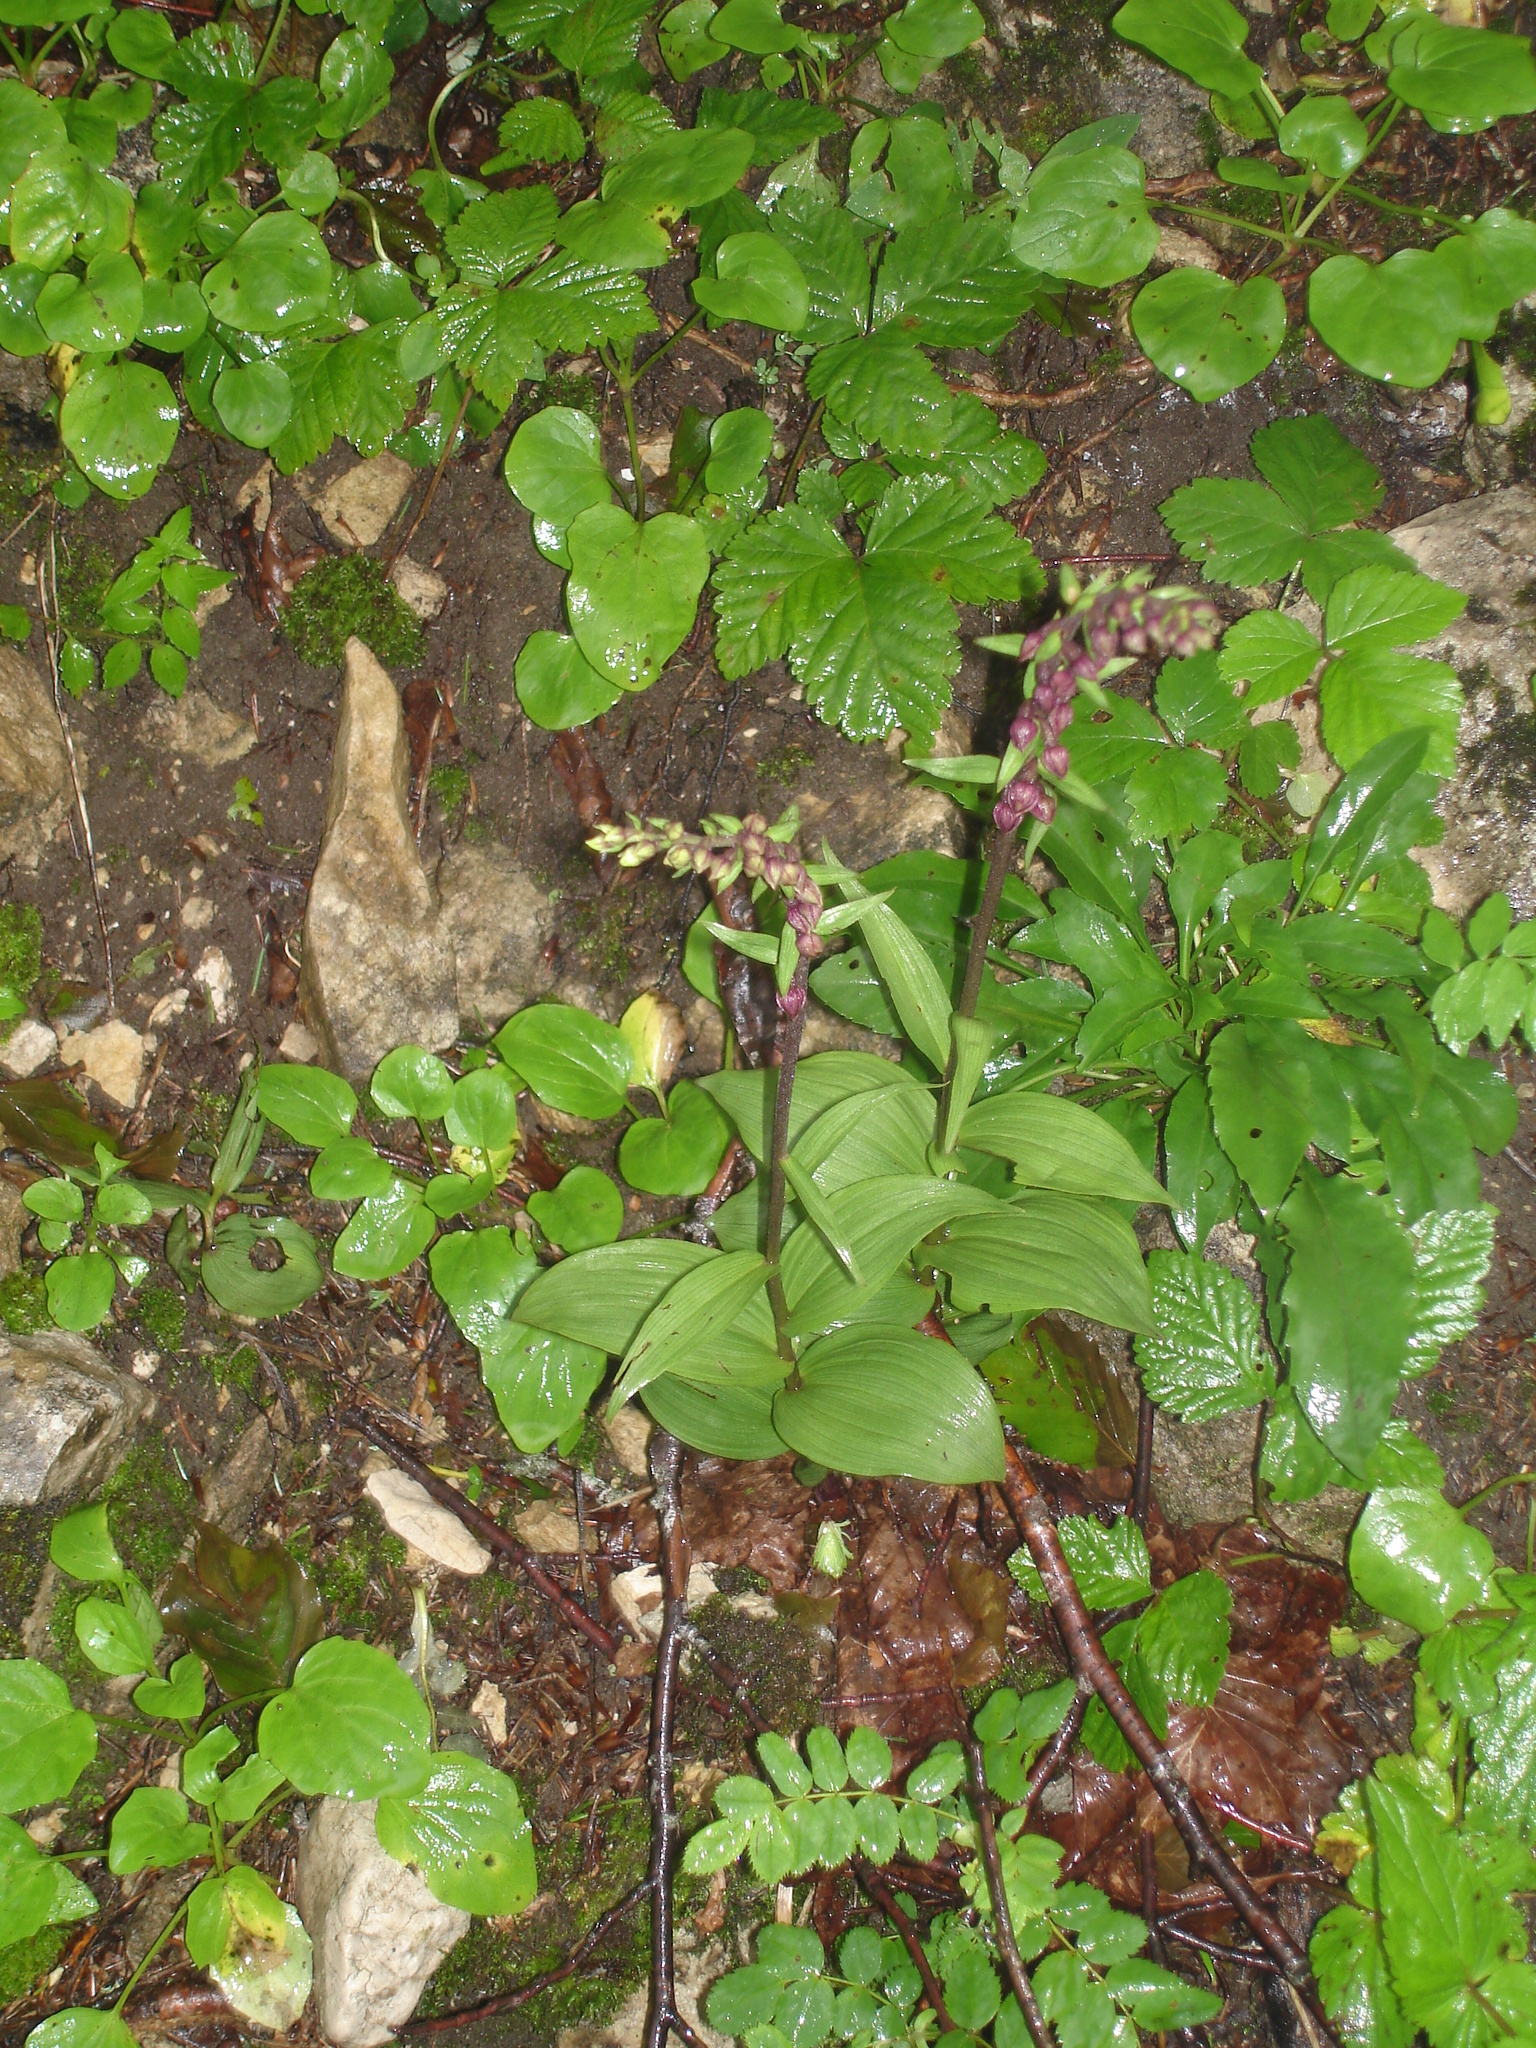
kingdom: Plantae
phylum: Tracheophyta
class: Liliopsida
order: Asparagales
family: Orchidaceae
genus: Epipactis
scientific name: Epipactis atrorubens
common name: Dark-red helleborine
